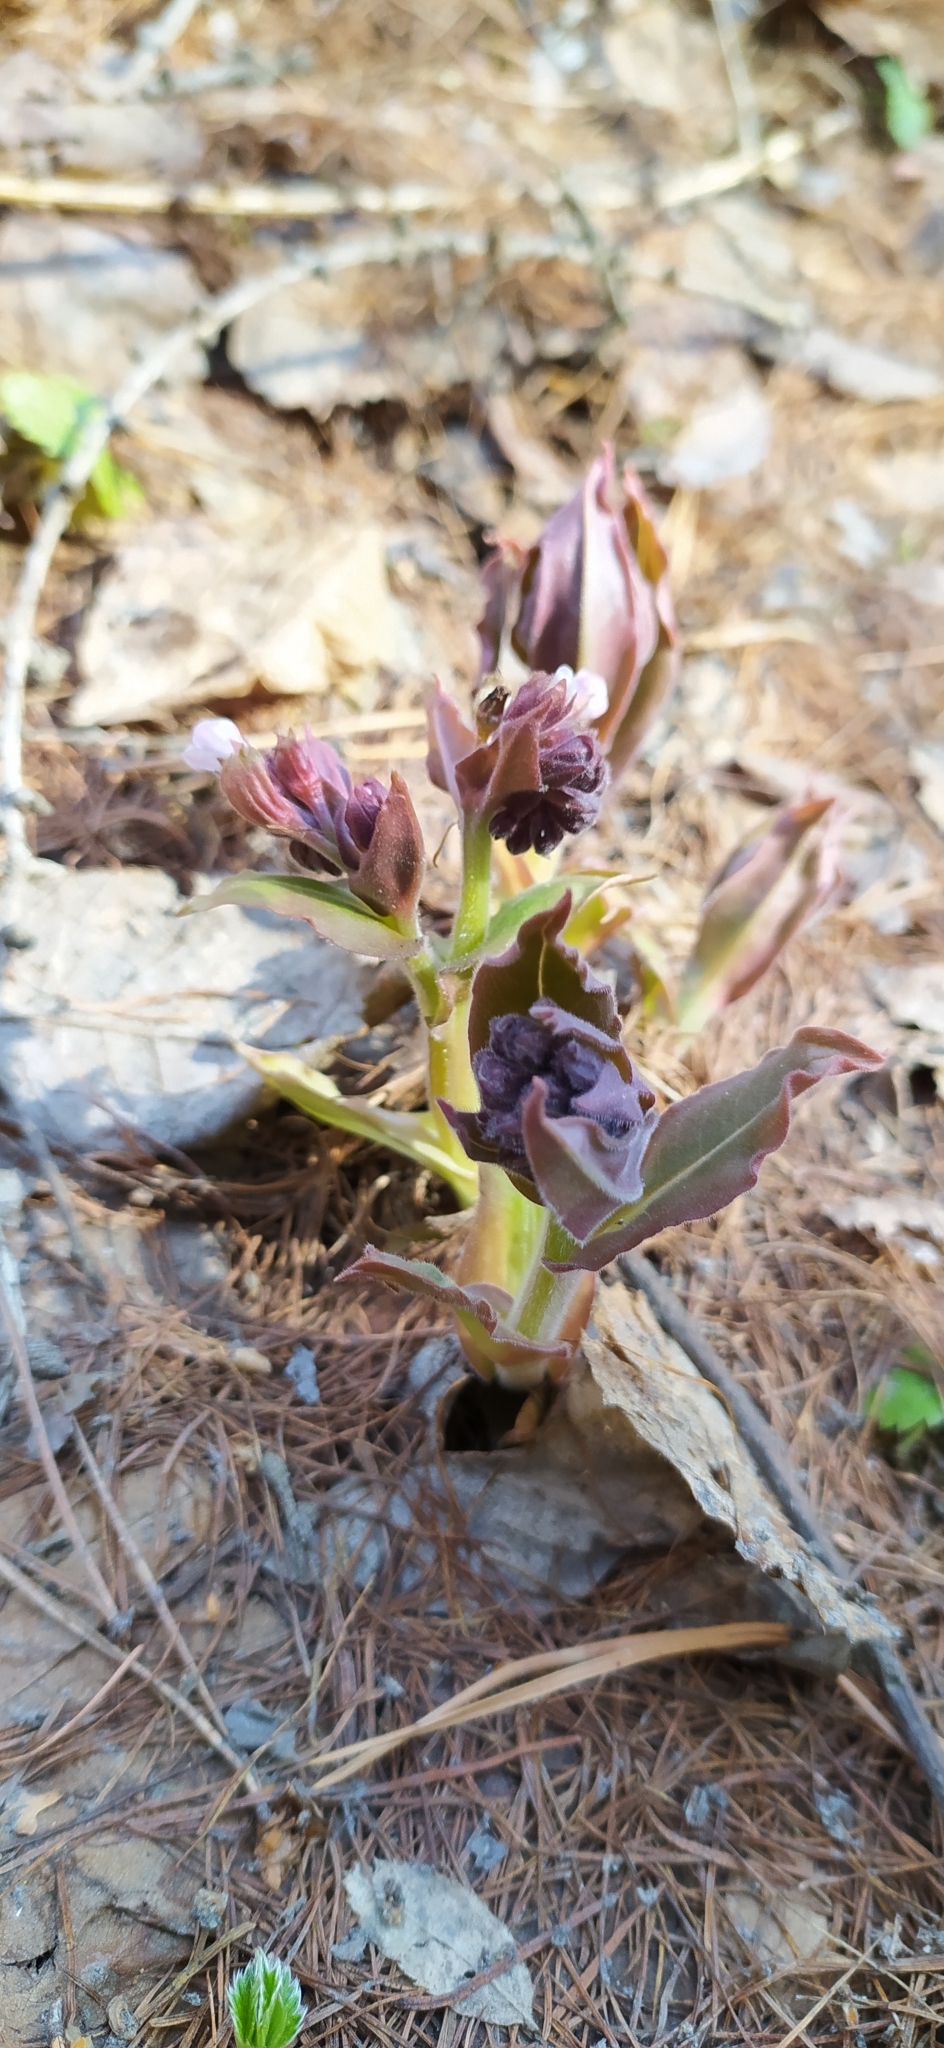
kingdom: Plantae
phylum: Tracheophyta
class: Magnoliopsida
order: Boraginales
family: Boraginaceae
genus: Pulmonaria
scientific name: Pulmonaria mollis
